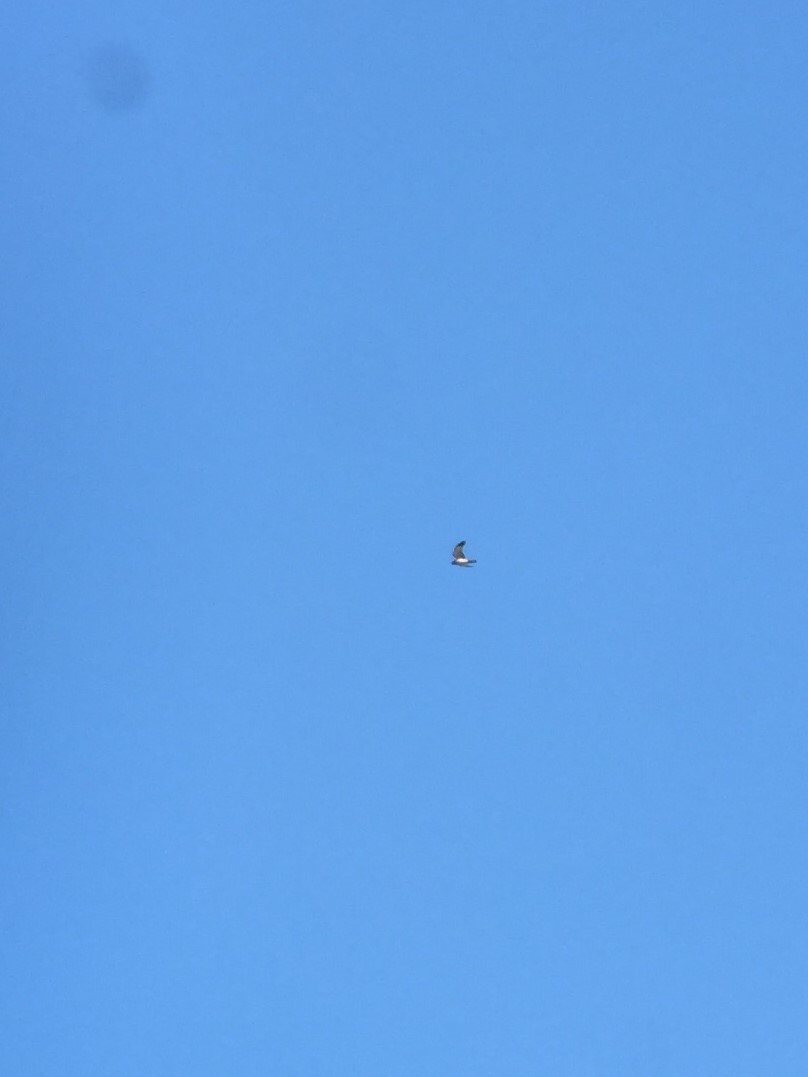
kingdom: Animalia
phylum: Chordata
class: Aves
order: Accipitriformes
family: Accipitridae
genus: Circus
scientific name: Circus cyaneus
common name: Hen harrier
